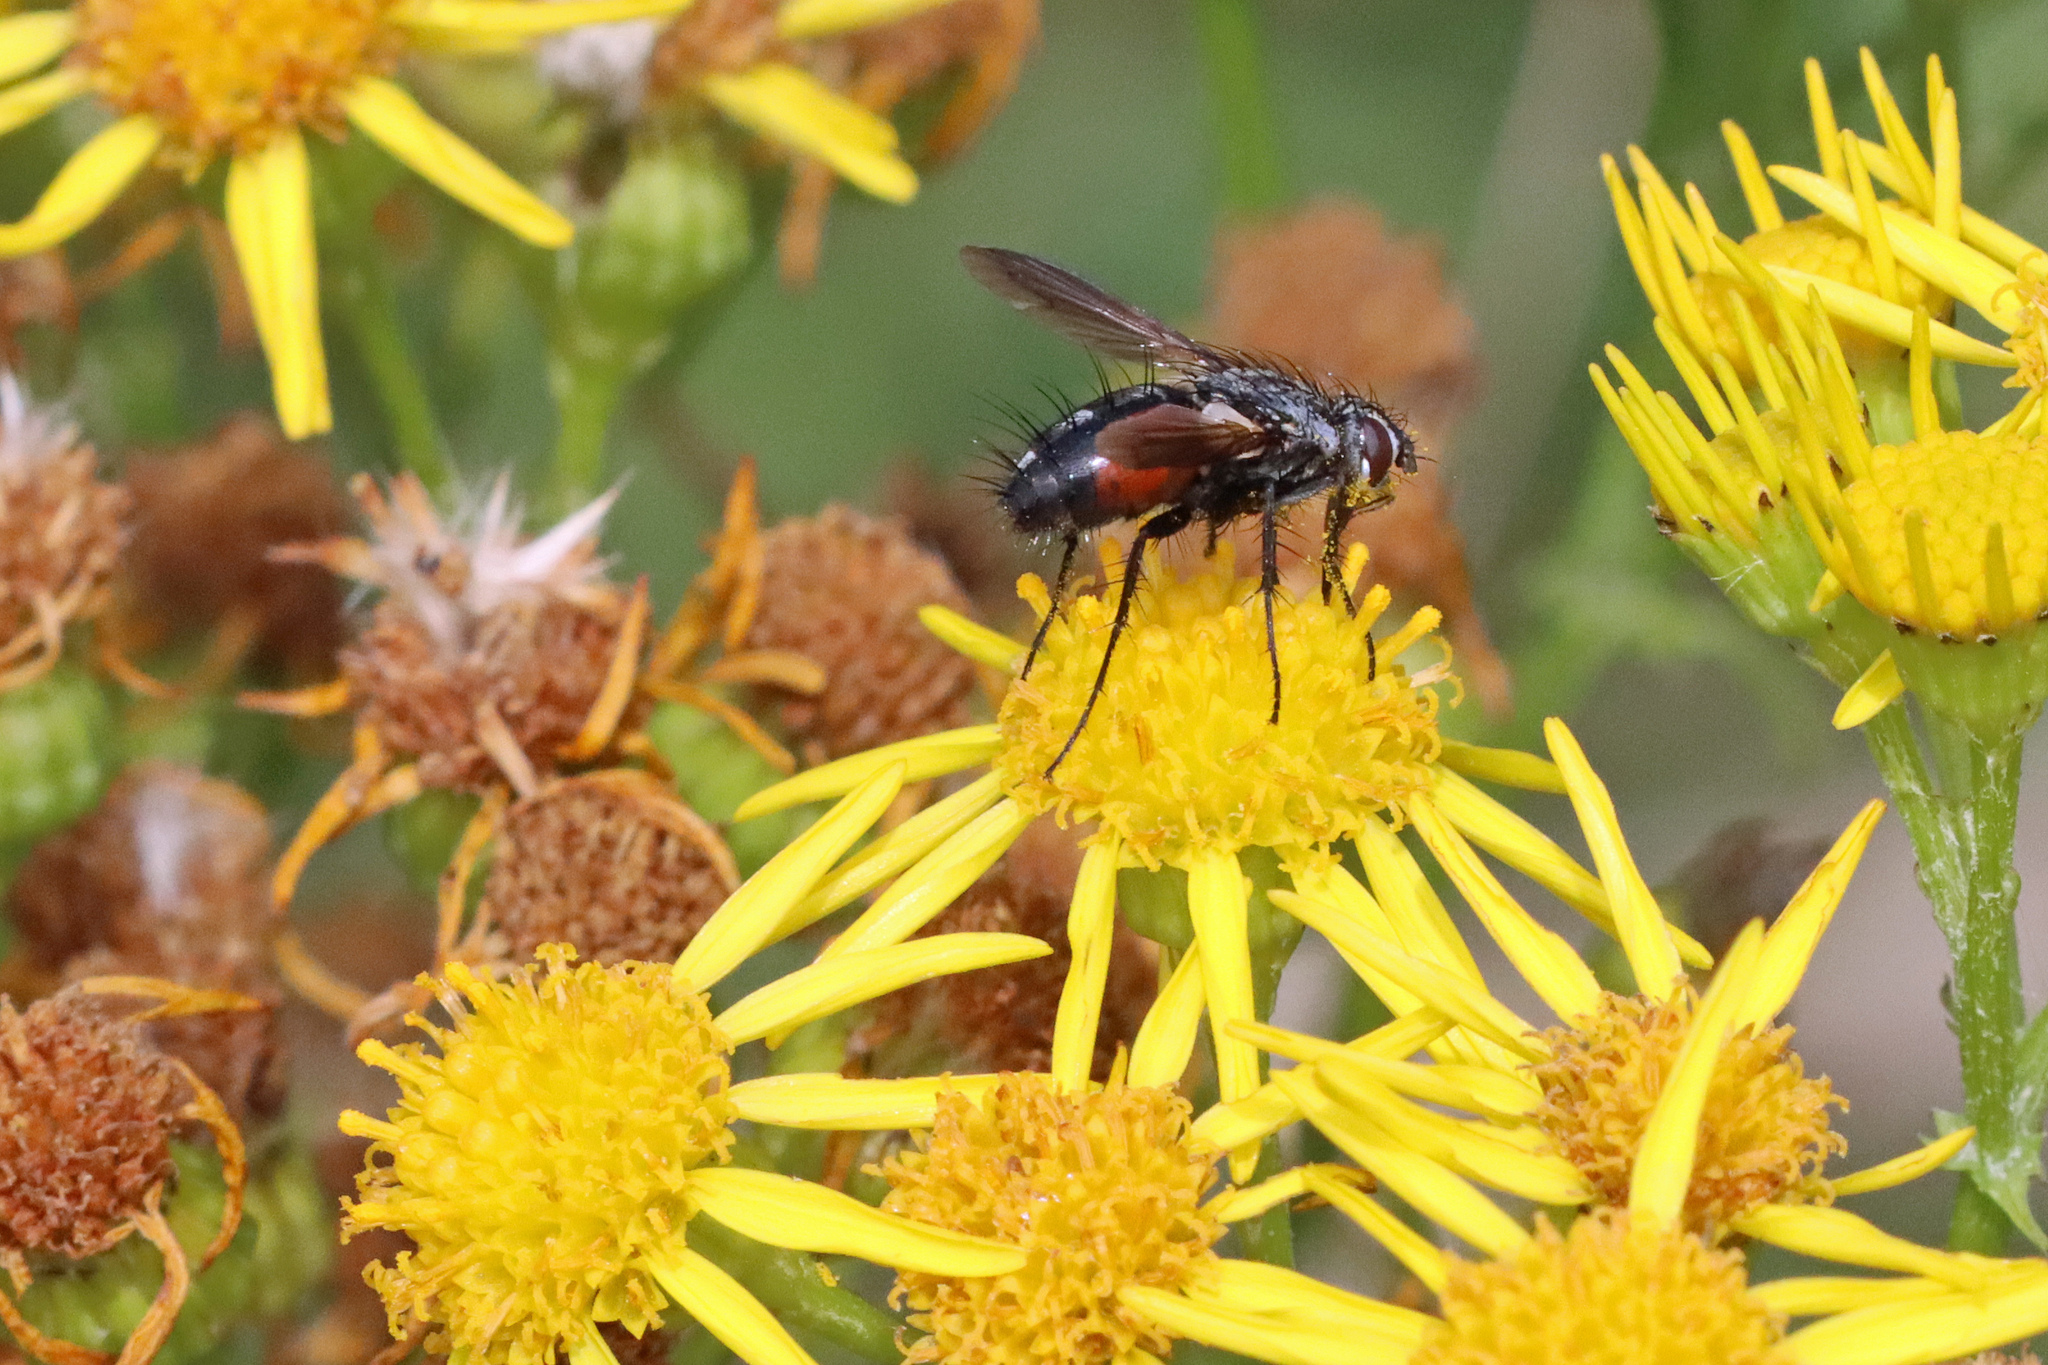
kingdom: Animalia
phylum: Arthropoda
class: Insecta
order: Diptera
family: Tachinidae
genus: Eriothrix
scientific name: Eriothrix rufomaculatus
